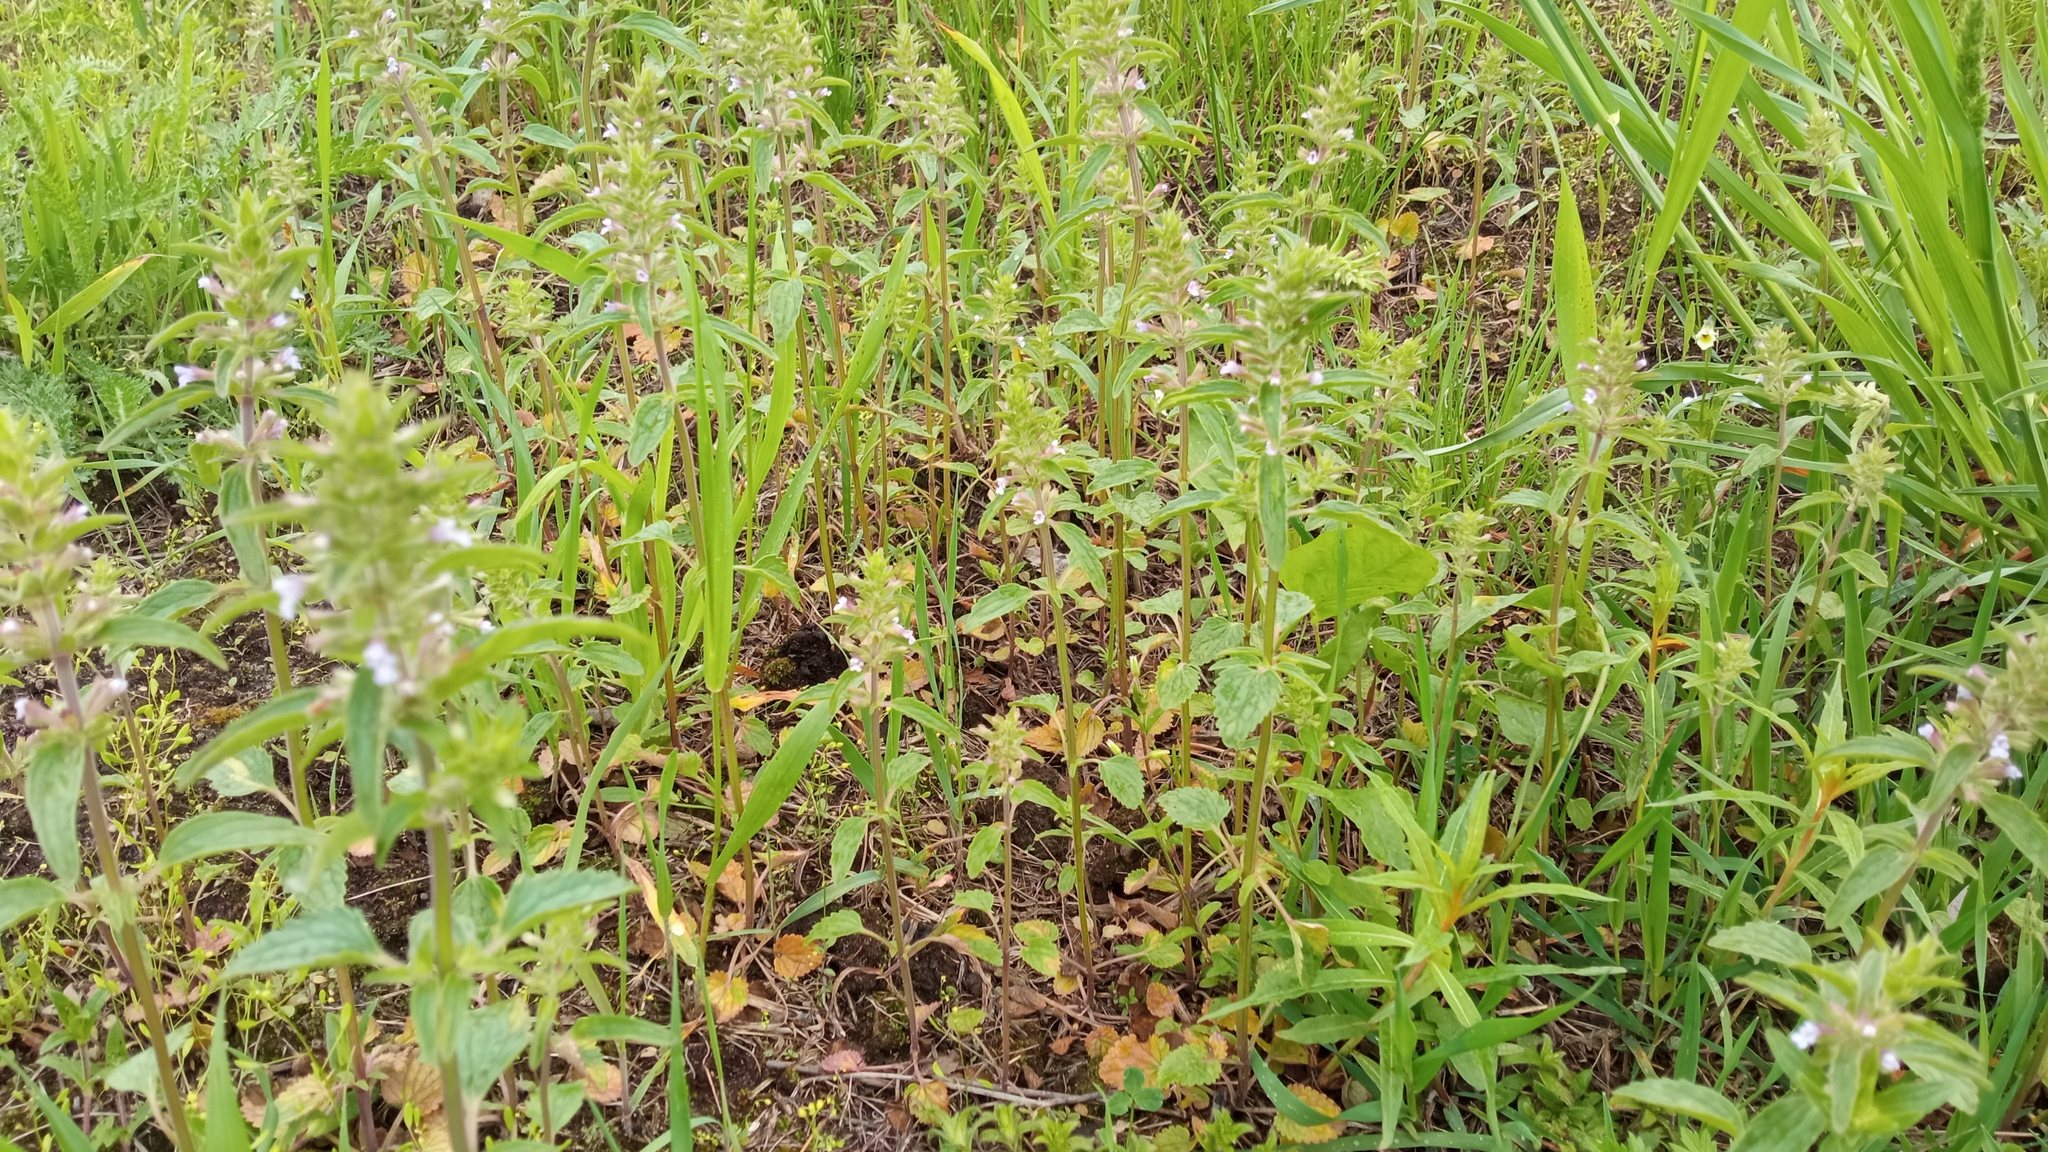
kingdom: Plantae
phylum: Tracheophyta
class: Magnoliopsida
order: Lamiales
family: Lamiaceae
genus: Dracocephalum
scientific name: Dracocephalum thymiflorum
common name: Thymeleaf dragonhead
